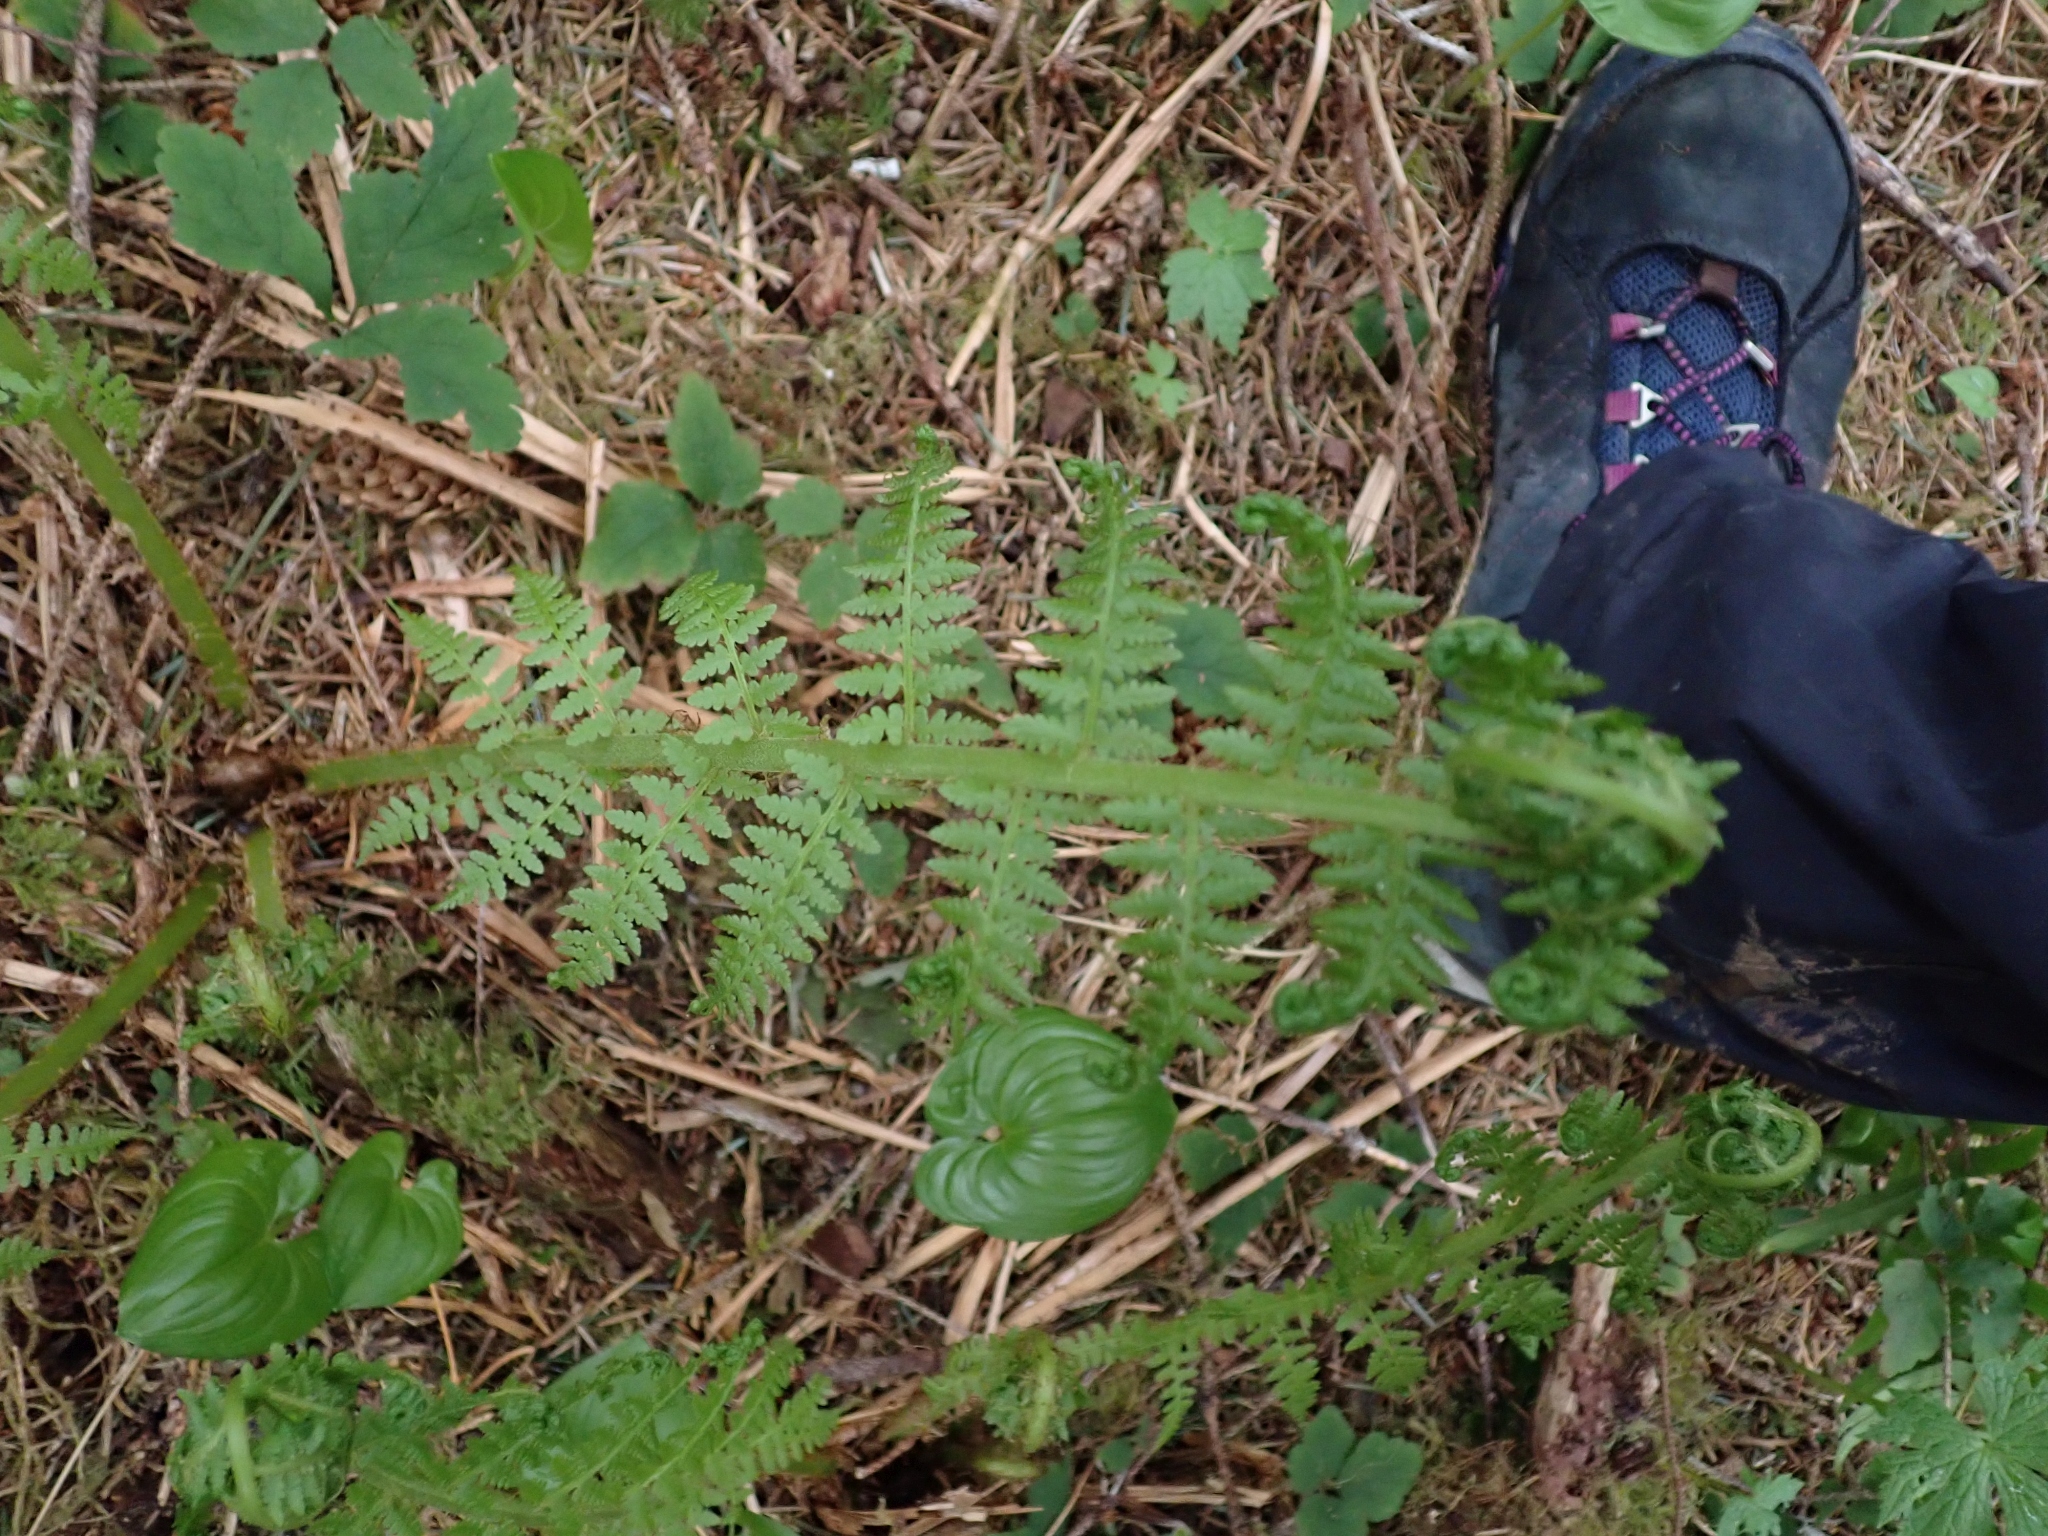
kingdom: Plantae
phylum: Tracheophyta
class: Polypodiopsida
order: Polypodiales
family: Athyriaceae
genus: Athyrium
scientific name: Athyrium filix-femina
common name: Lady fern
